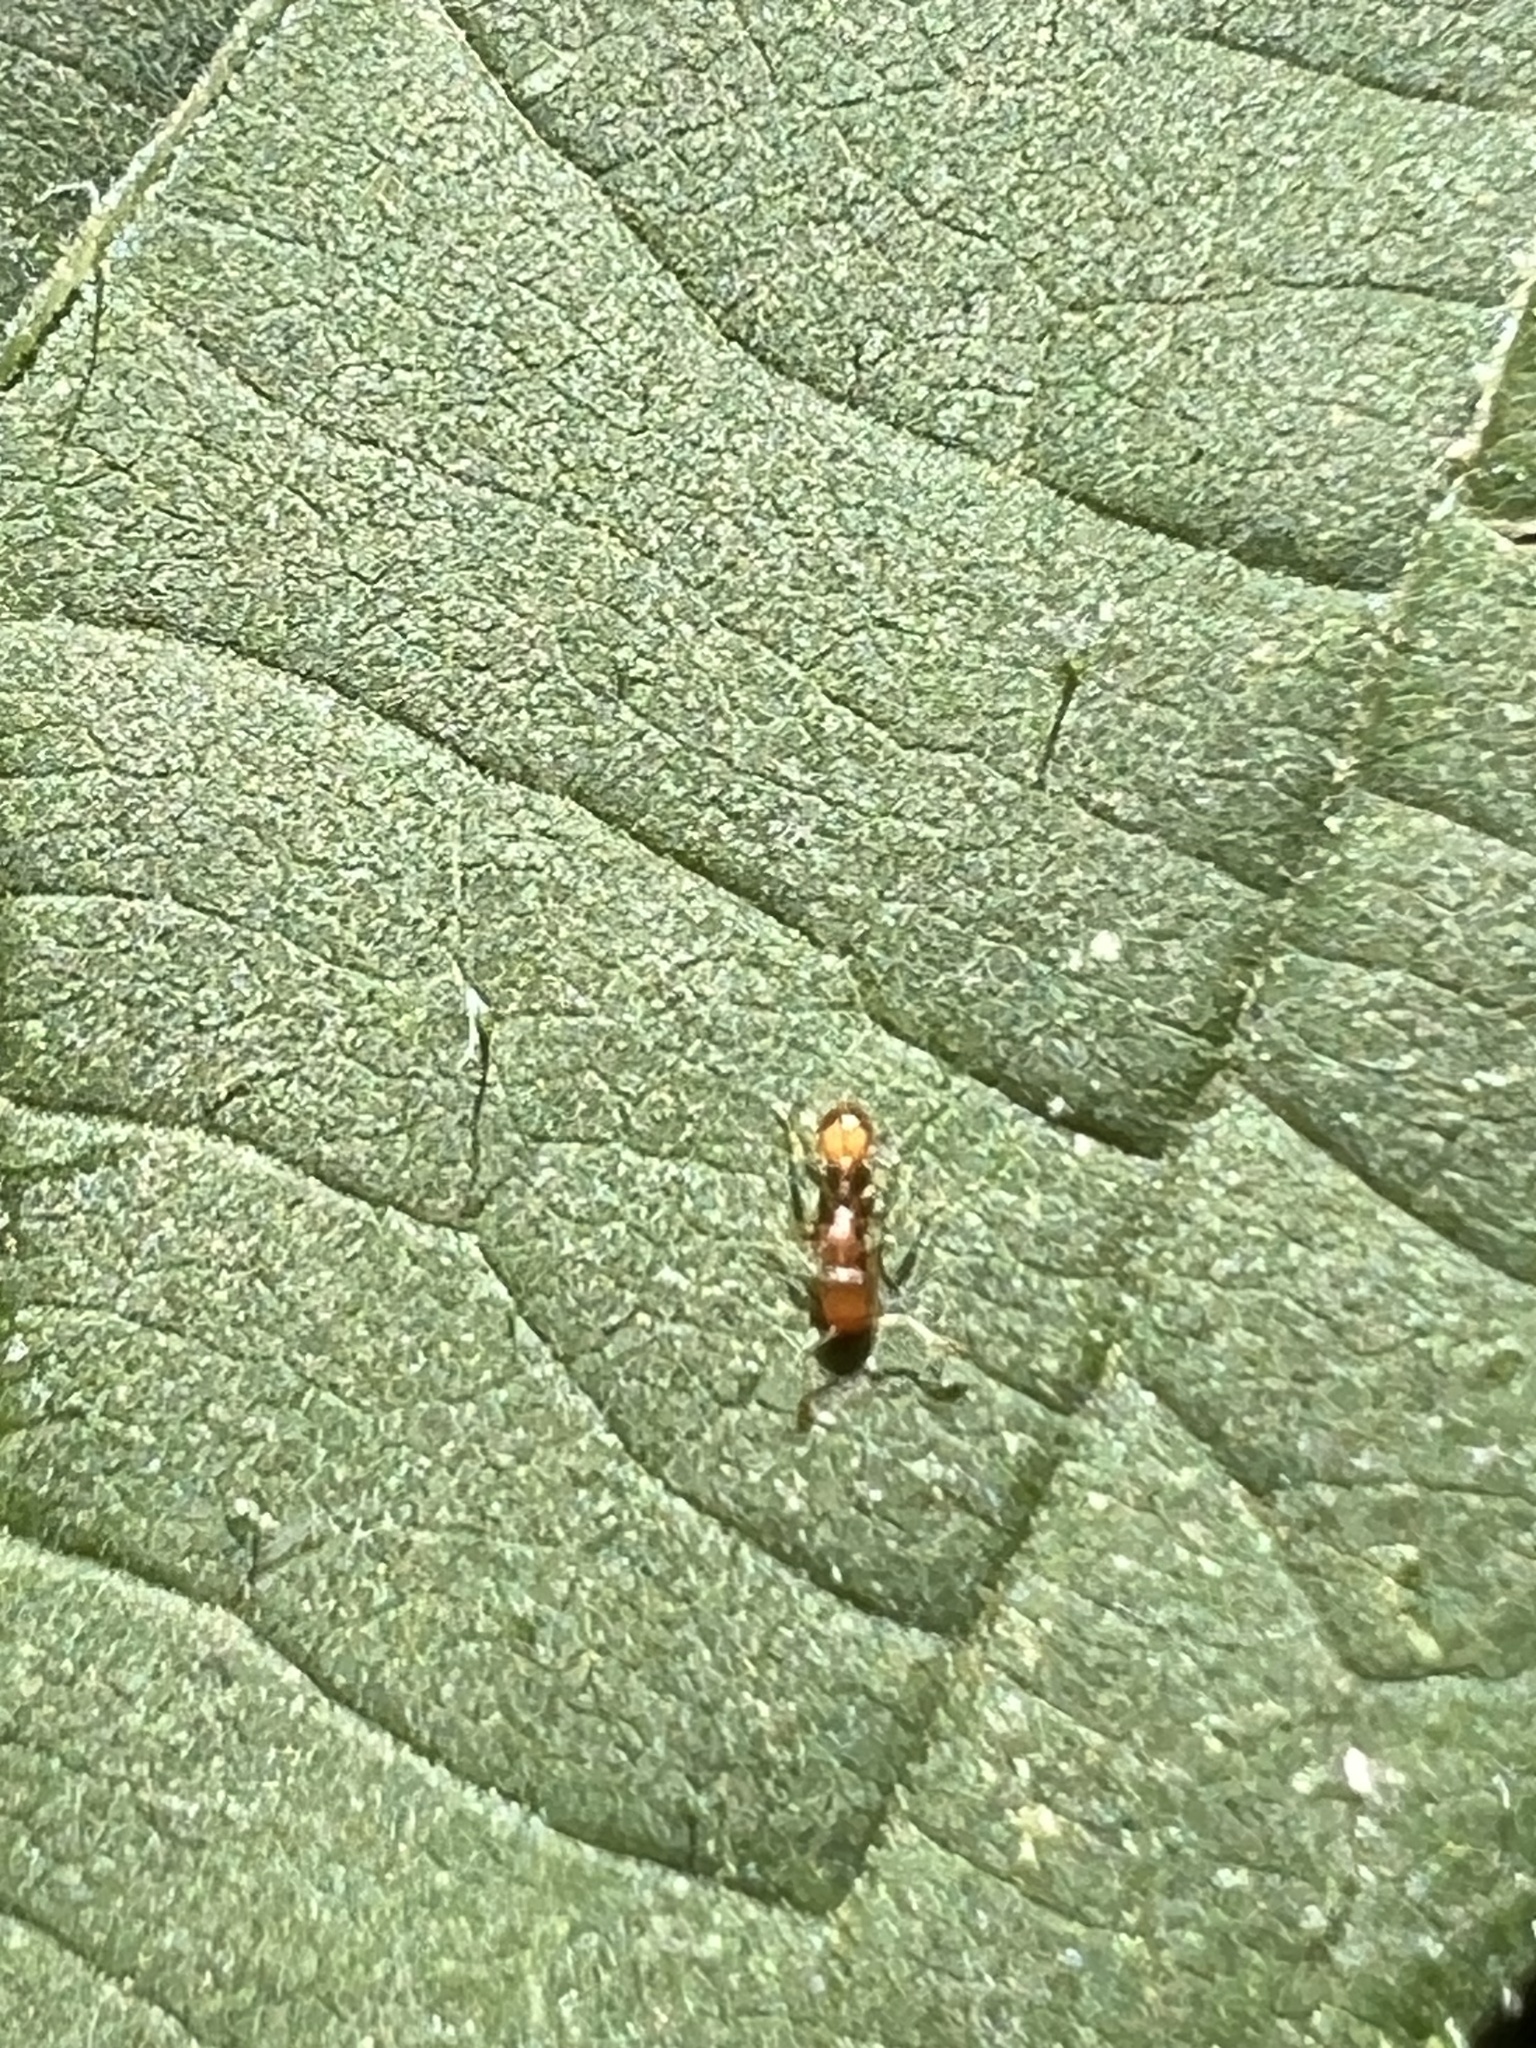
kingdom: Animalia
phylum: Arthropoda
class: Insecta
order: Hymenoptera
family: Formicidae
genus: Temnothorax
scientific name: Temnothorax curvispinosus
